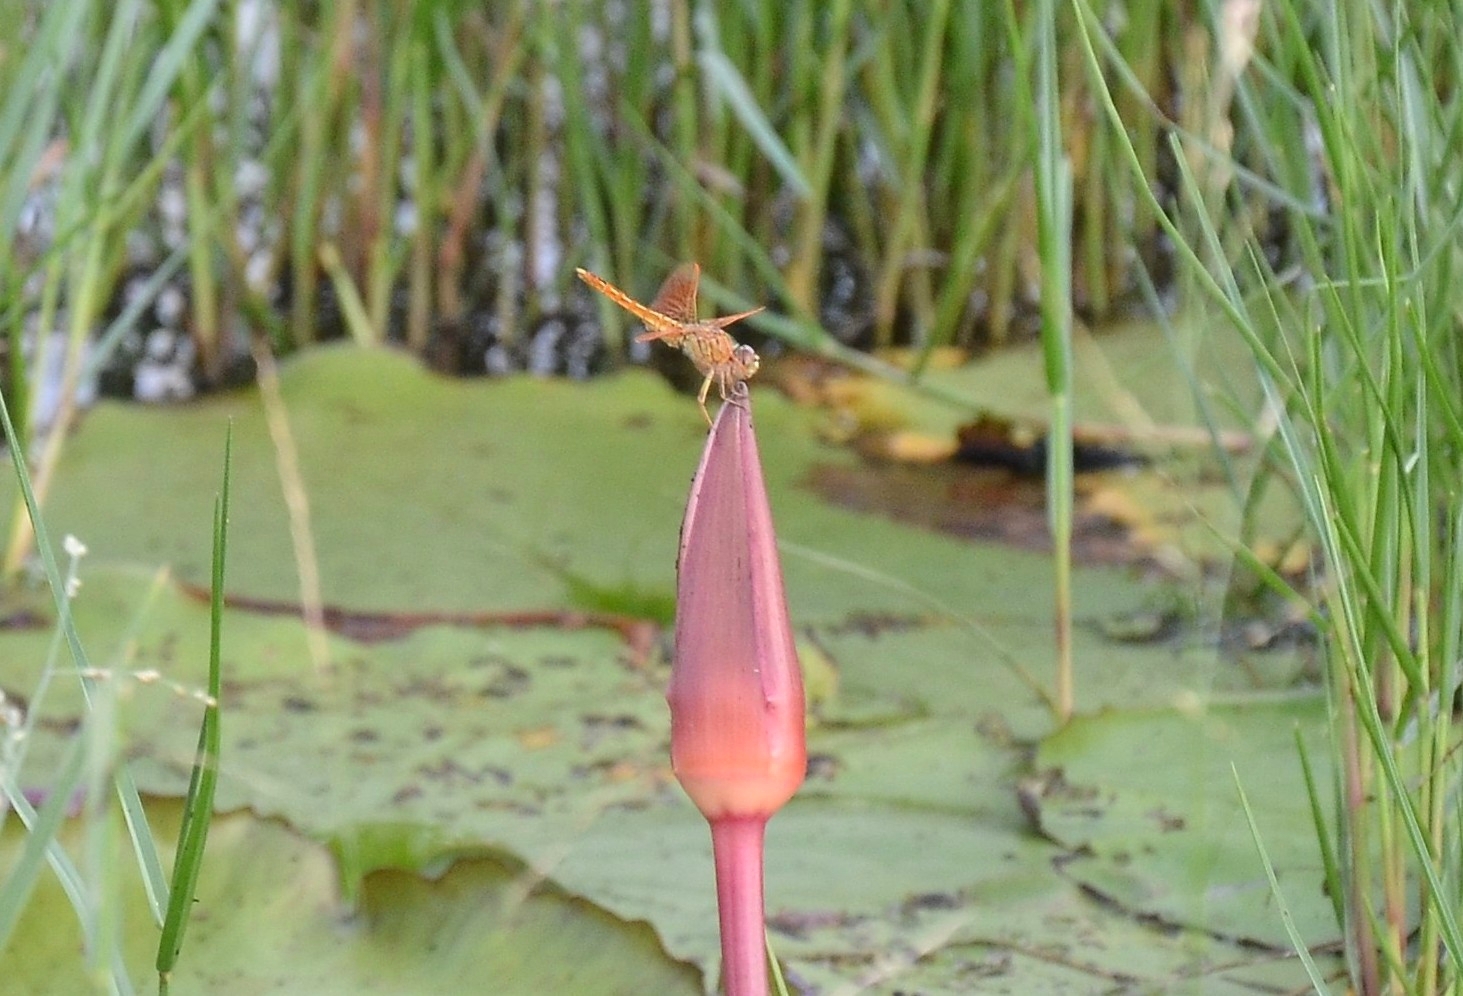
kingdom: Animalia
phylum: Arthropoda
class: Insecta
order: Odonata
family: Libellulidae
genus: Brachythemis
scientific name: Brachythemis contaminata
